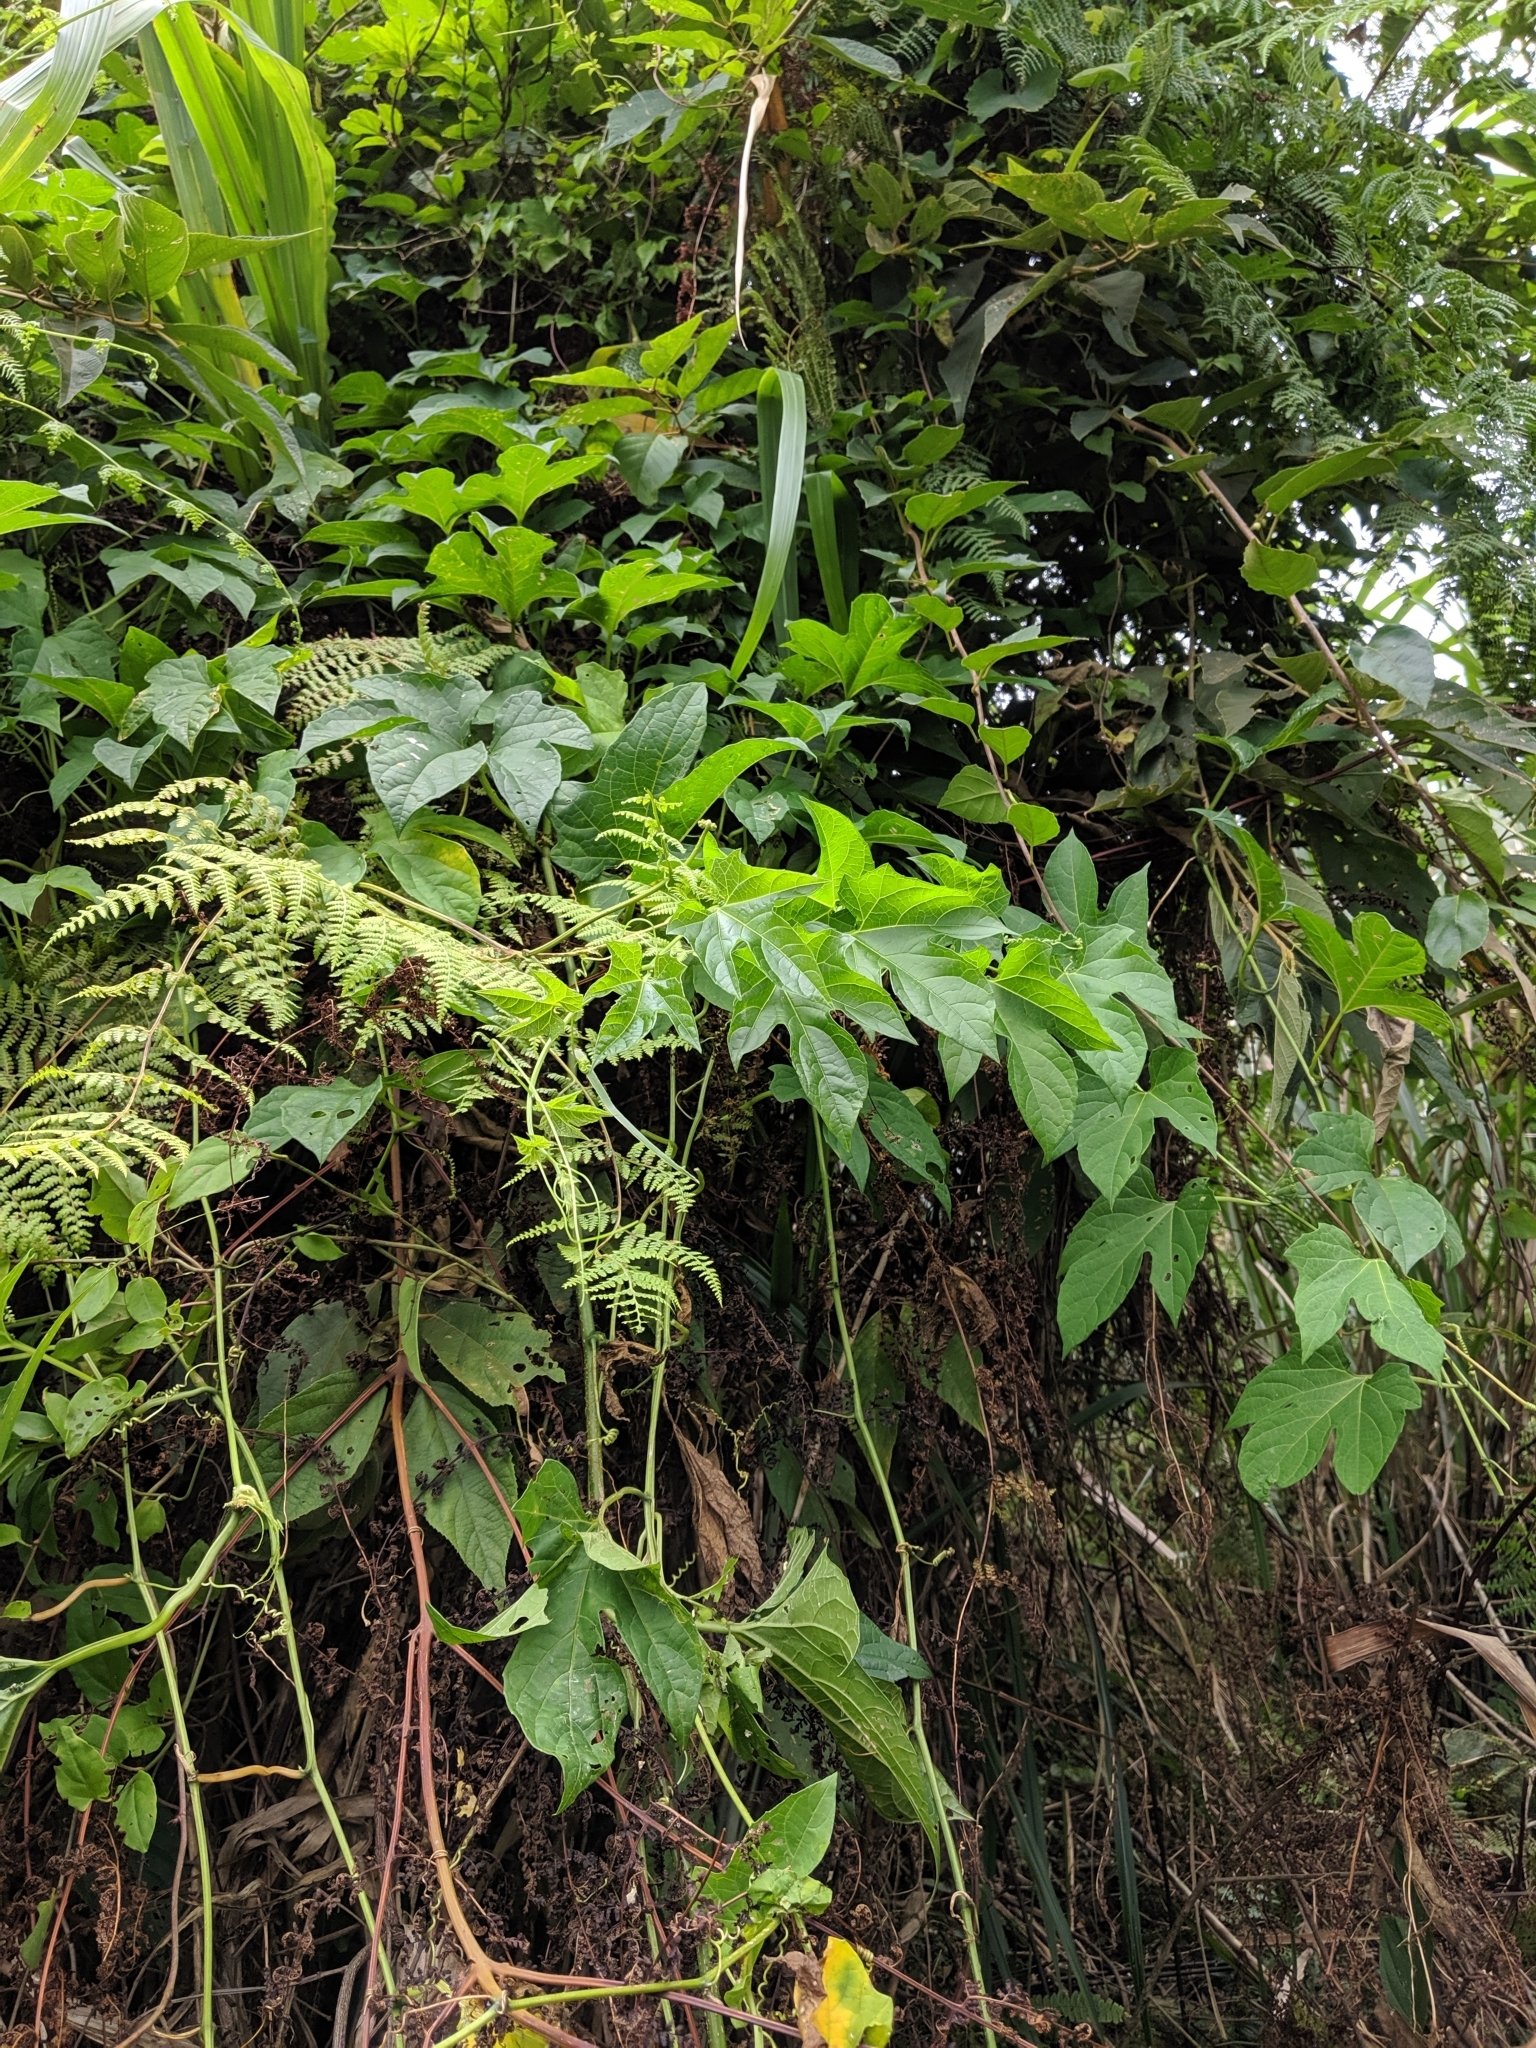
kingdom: Plantae
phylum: Tracheophyta
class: Magnoliopsida
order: Cucurbitales
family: Cucurbitaceae
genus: Momordica
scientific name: Momordica cochinchinensis
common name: Chinese bitter-cucumber
